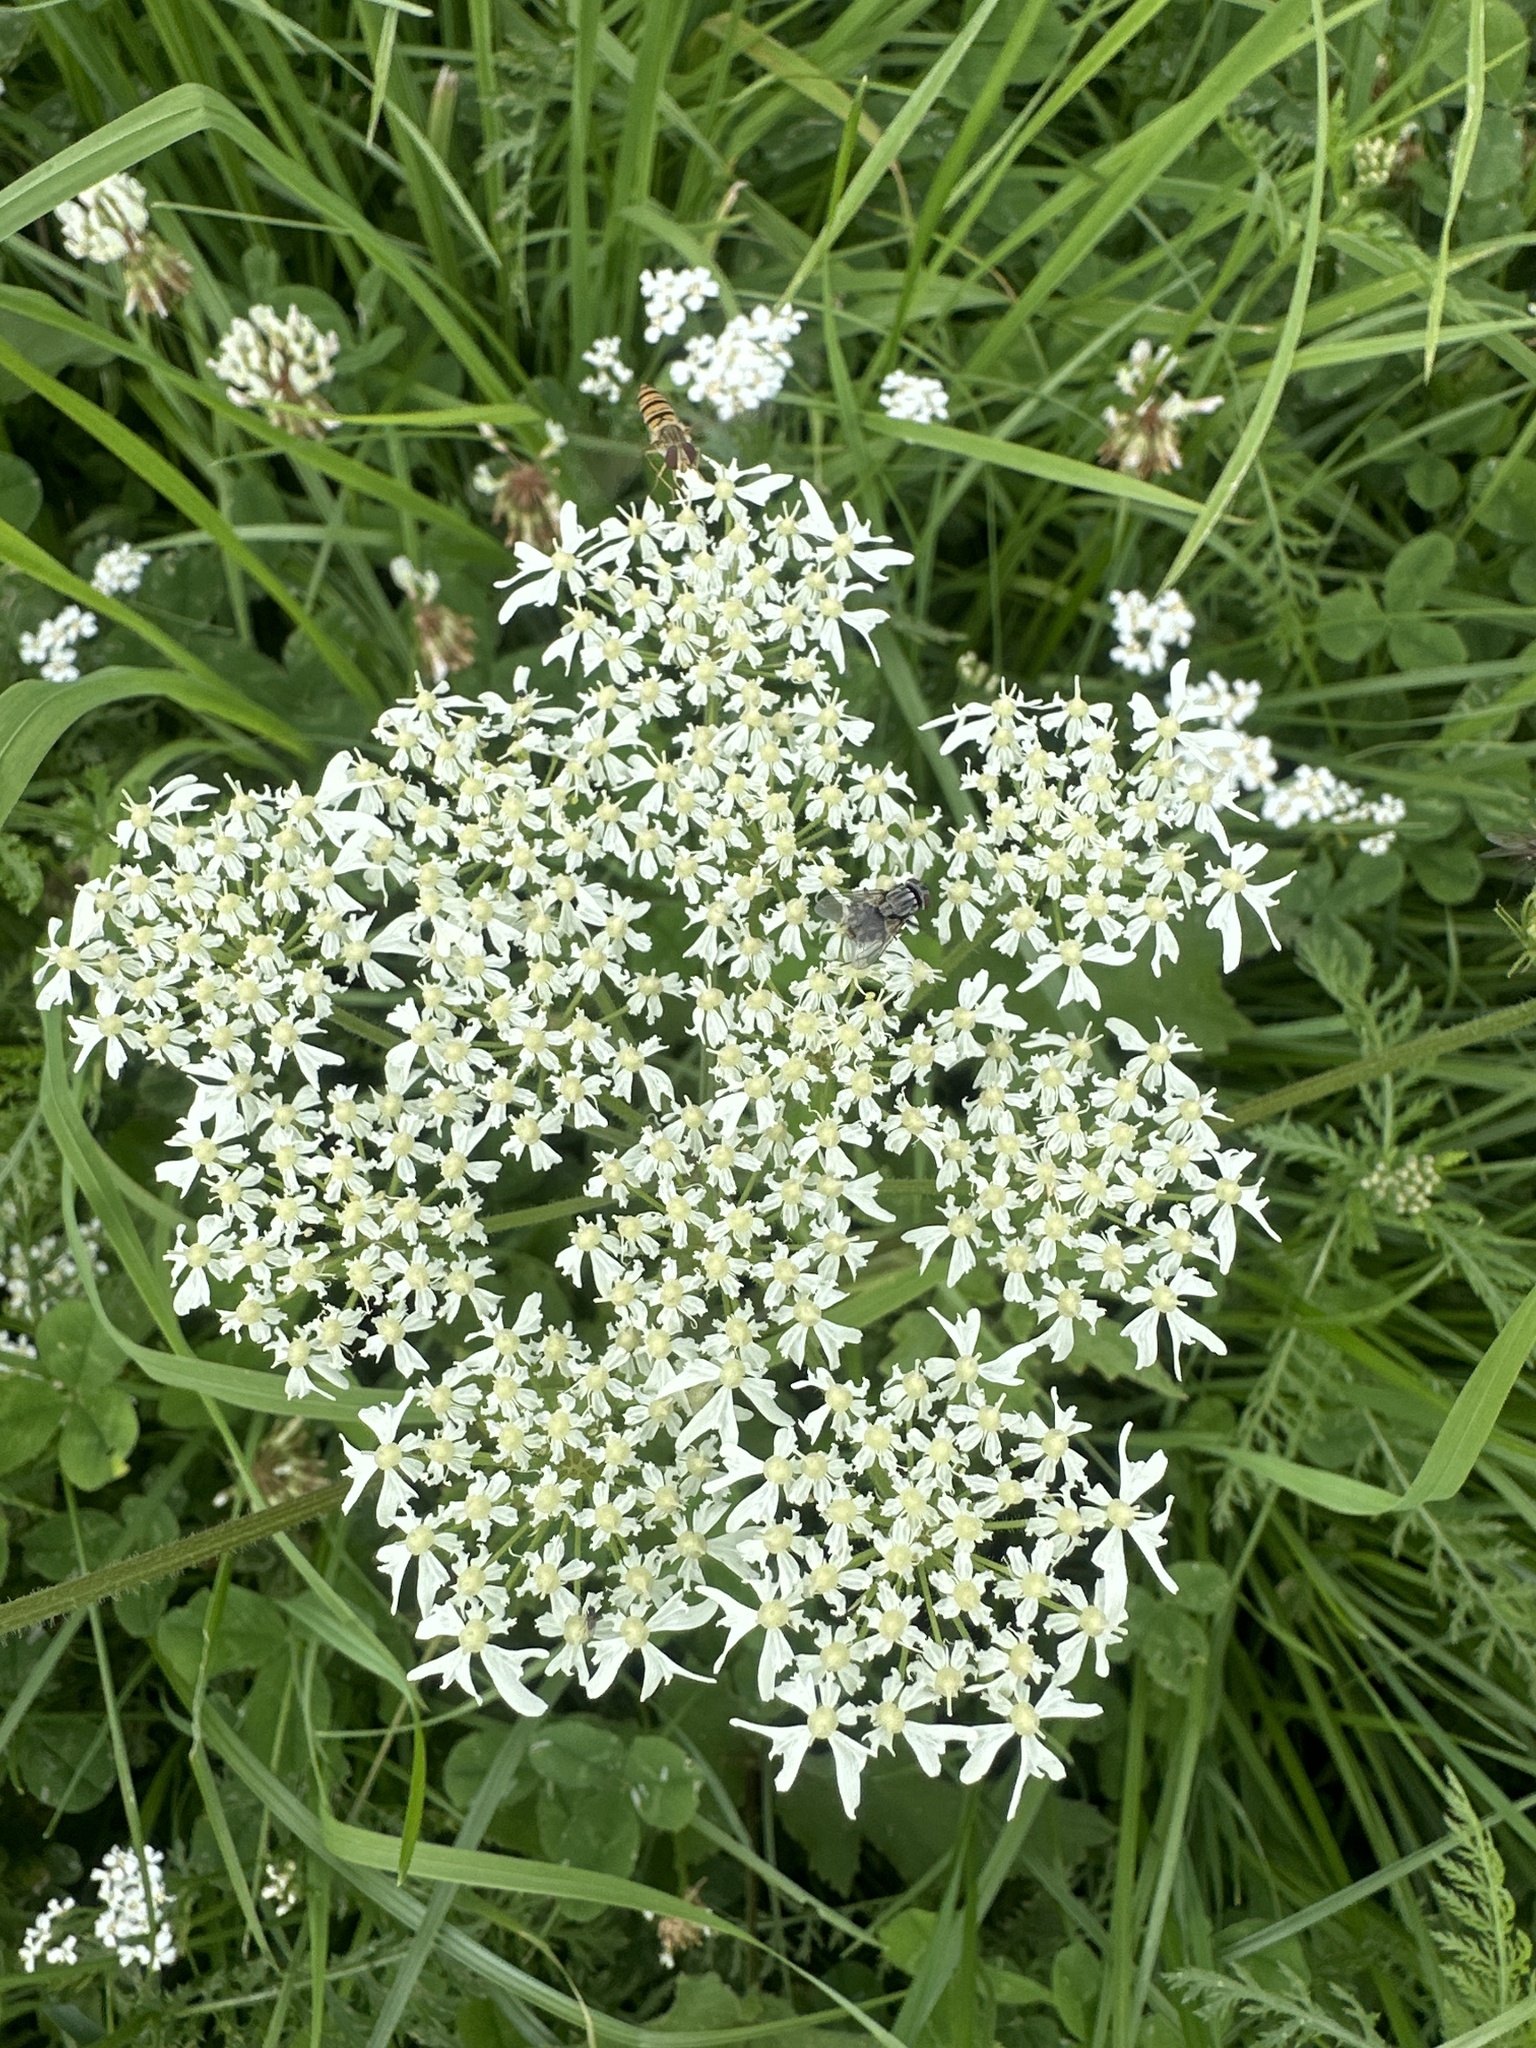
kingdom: Plantae
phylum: Tracheophyta
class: Magnoliopsida
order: Apiales
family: Apiaceae
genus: Heracleum
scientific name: Heracleum sphondylium
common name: Hogweed
